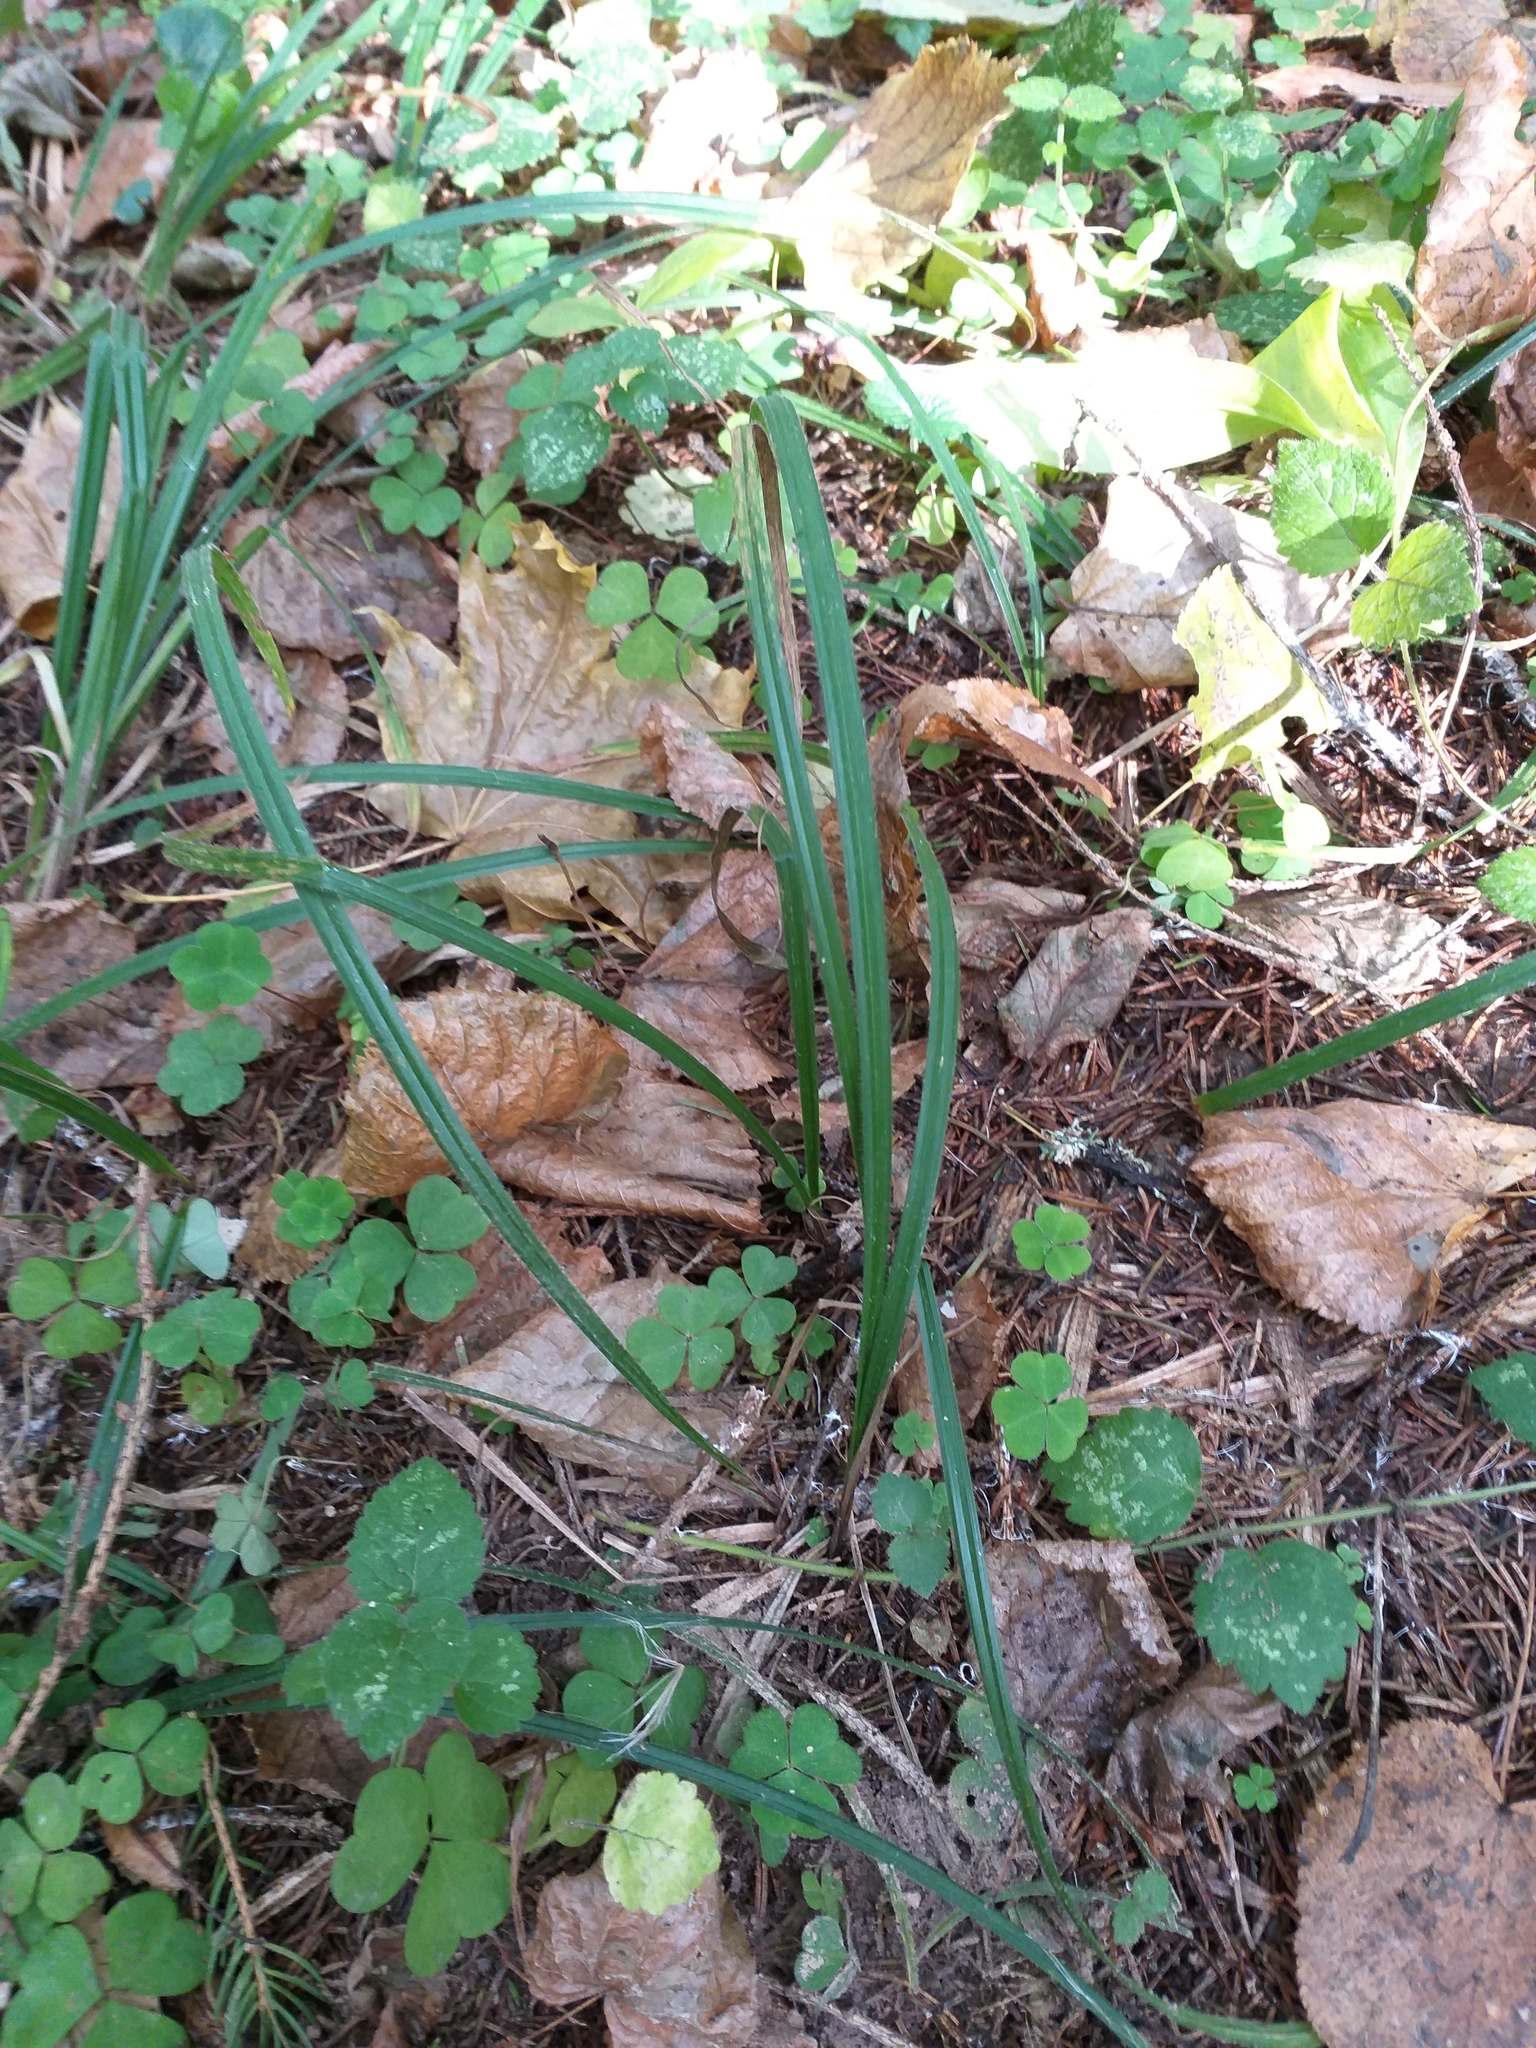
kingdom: Plantae
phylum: Tracheophyta
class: Liliopsida
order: Poales
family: Cyperaceae
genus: Carex
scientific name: Carex pilosa
